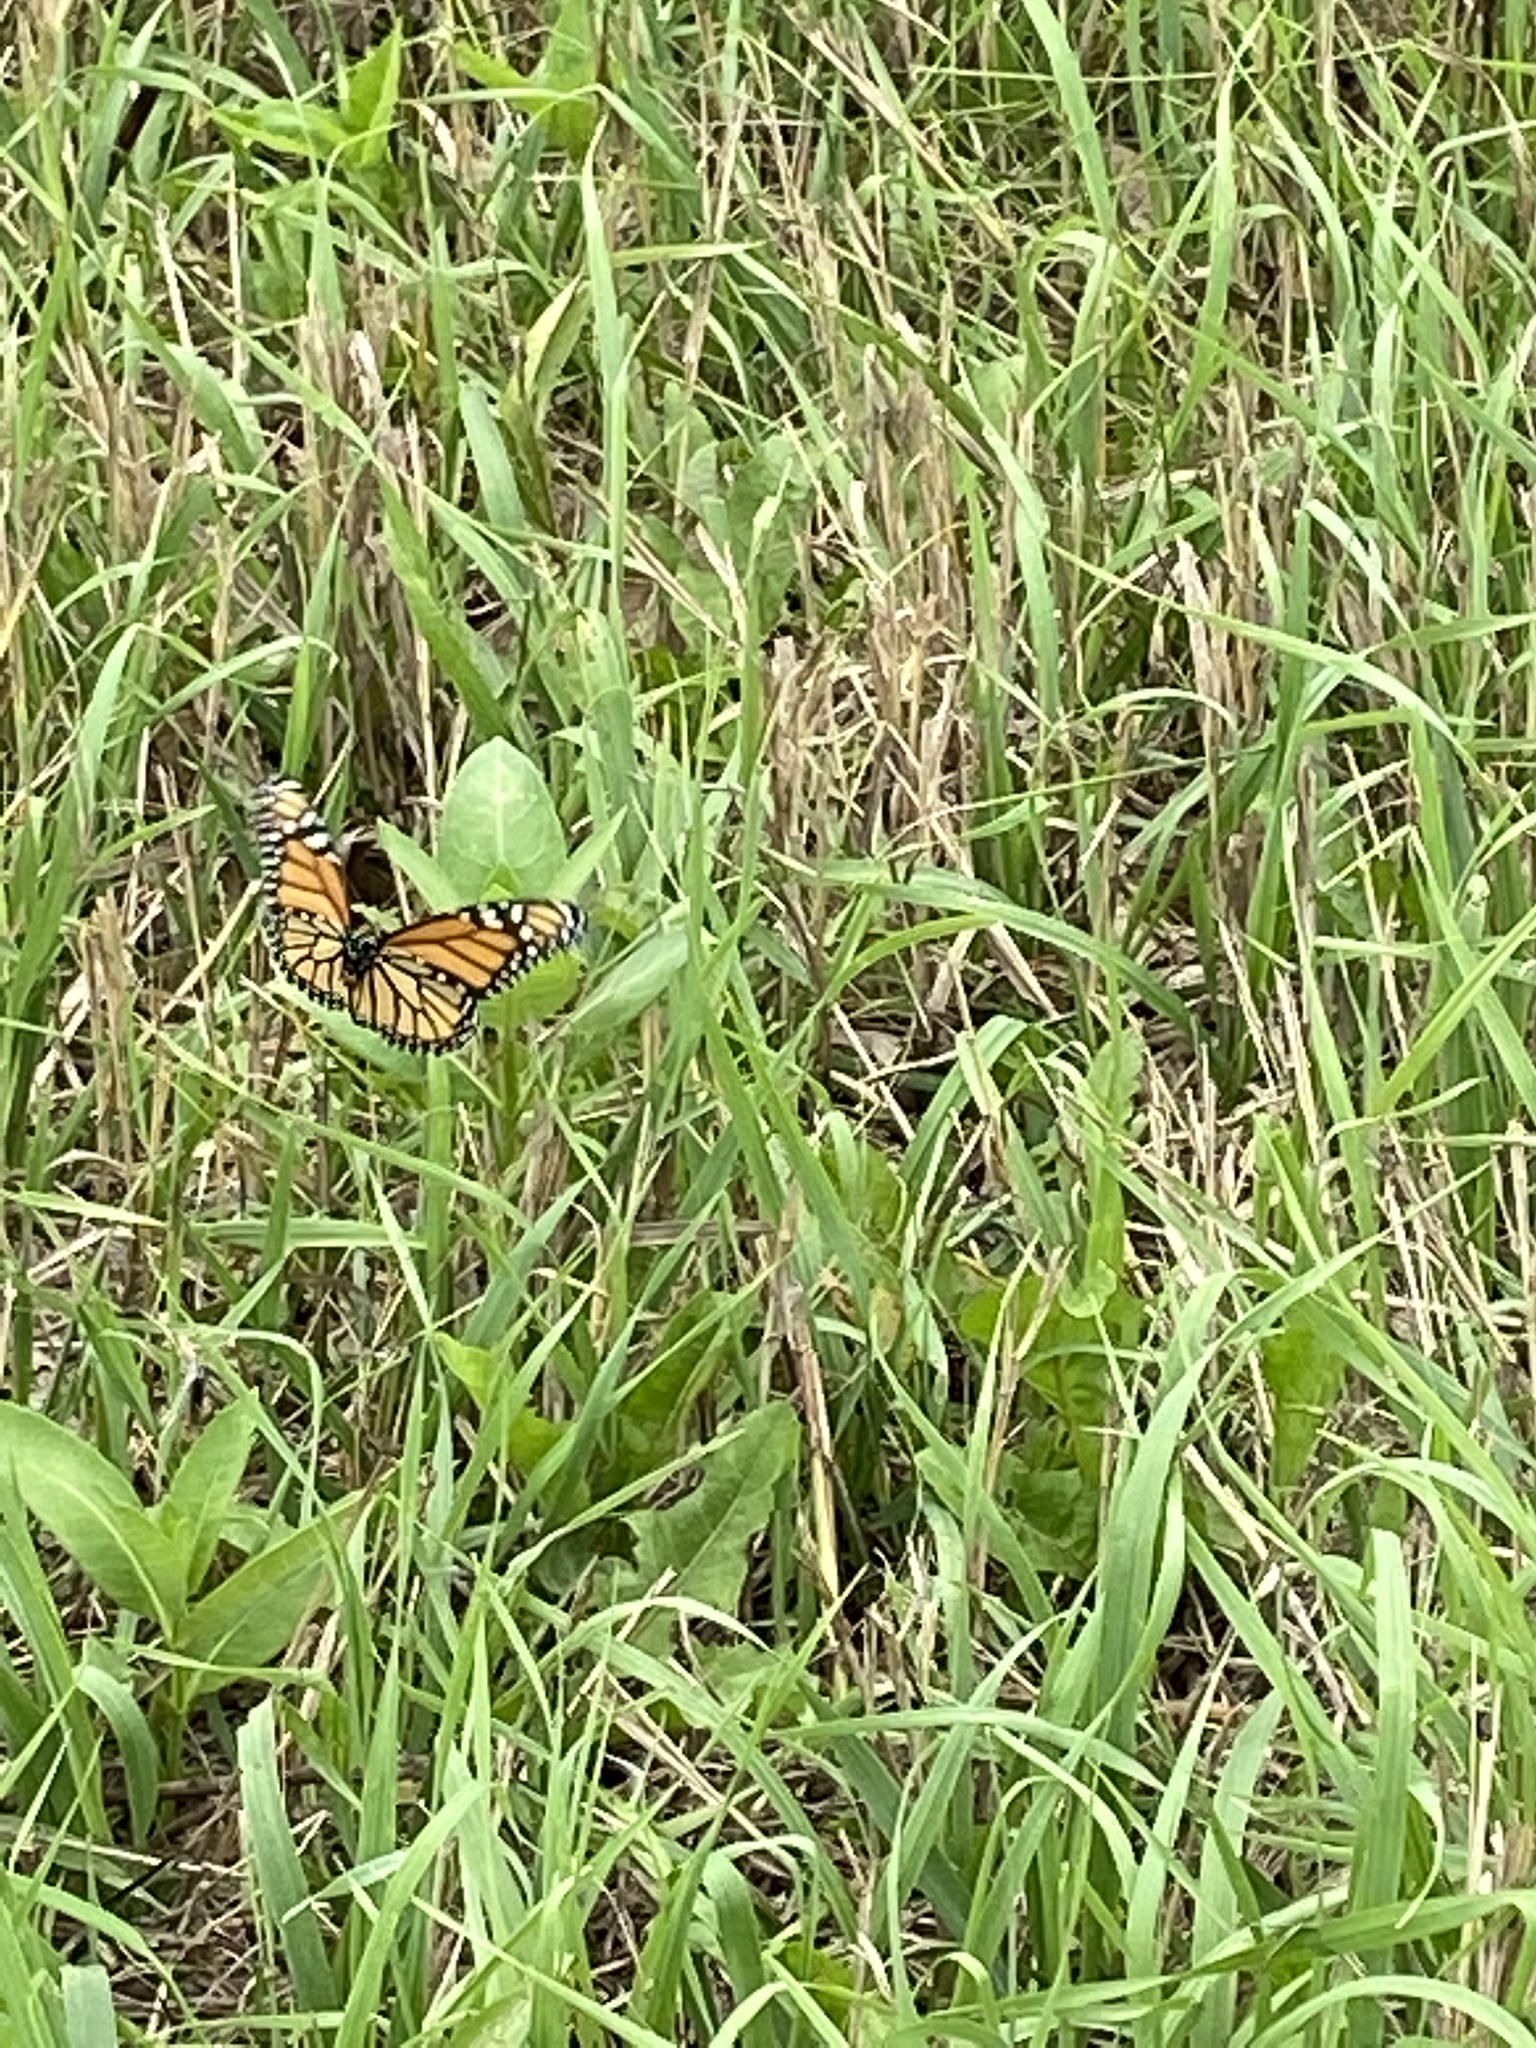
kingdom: Animalia
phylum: Arthropoda
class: Insecta
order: Lepidoptera
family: Nymphalidae
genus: Danaus
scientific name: Danaus plexippus
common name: Monarch
